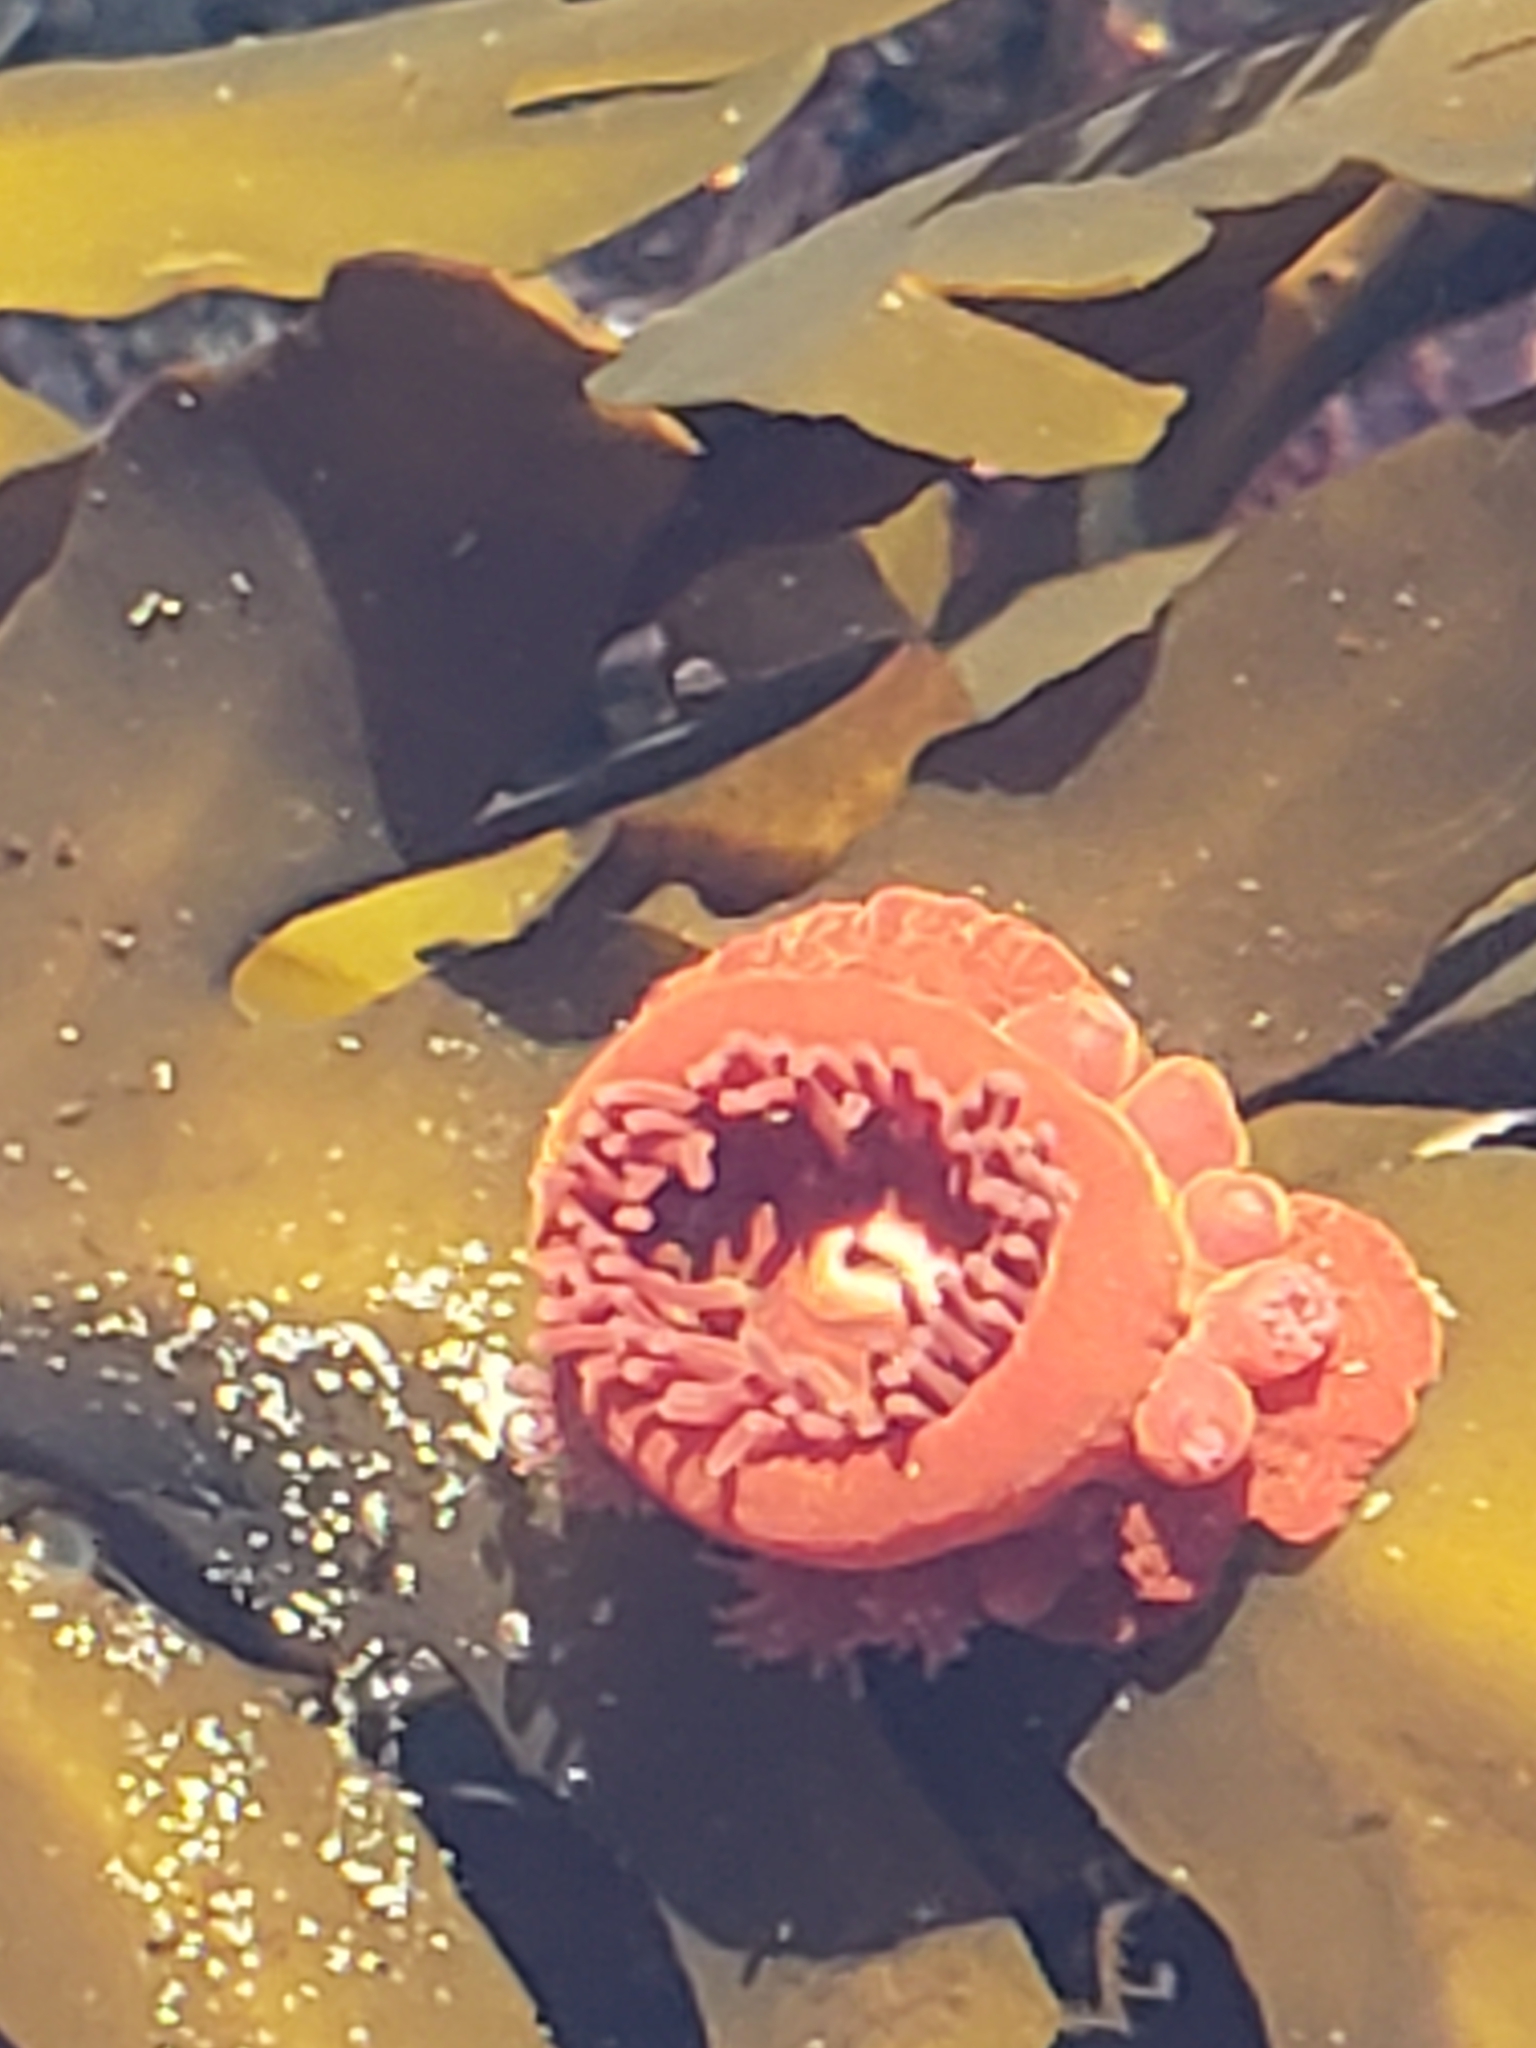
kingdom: Animalia
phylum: Cnidaria
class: Anthozoa
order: Actiniaria
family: Actiniidae
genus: Epiactis
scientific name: Epiactis prolifera
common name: Brooding anemone
